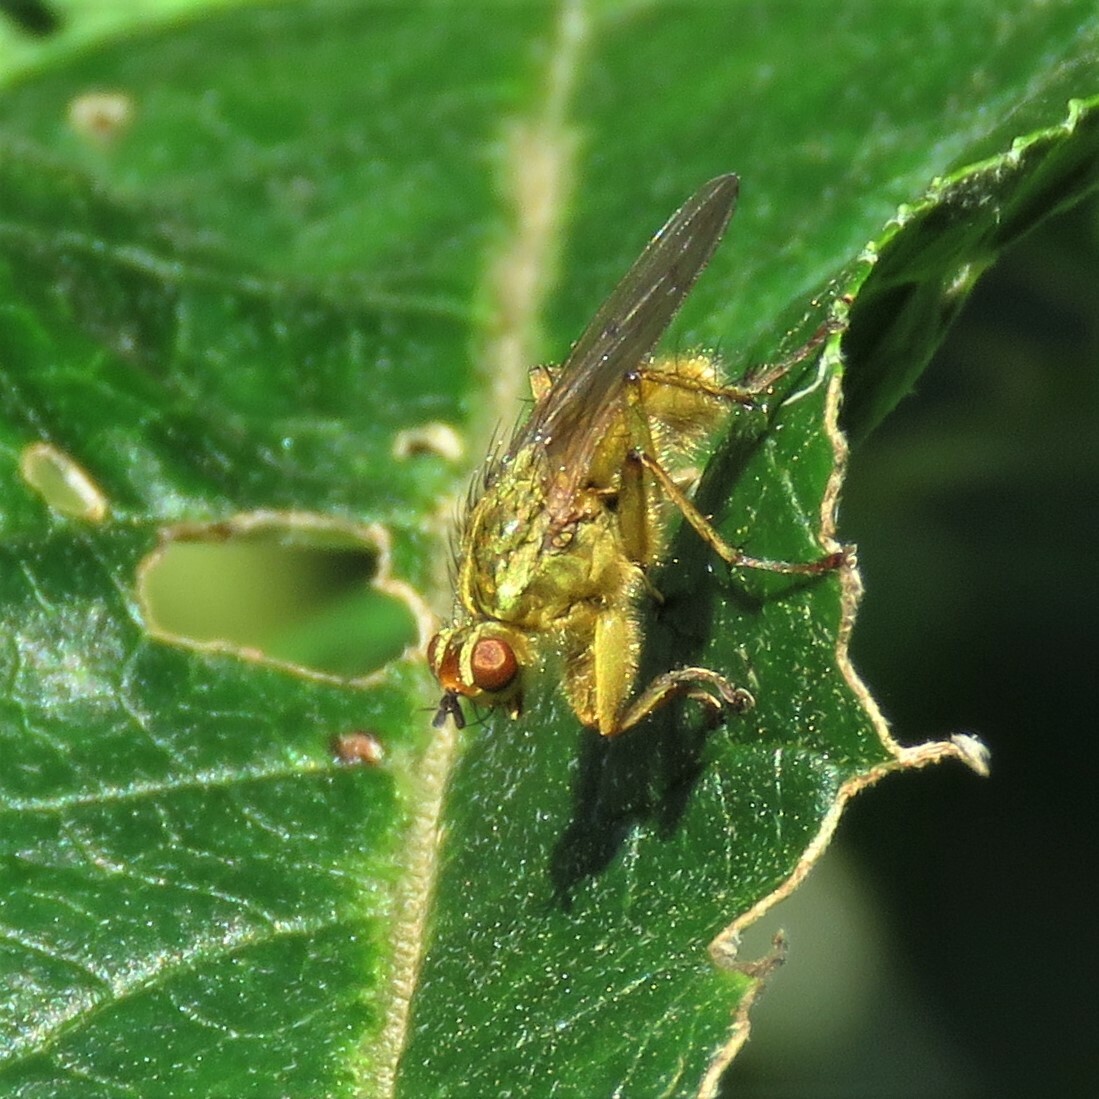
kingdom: Animalia
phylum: Arthropoda
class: Insecta
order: Diptera
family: Scathophagidae
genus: Scathophaga
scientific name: Scathophaga stercoraria
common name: Yellow dung fly
